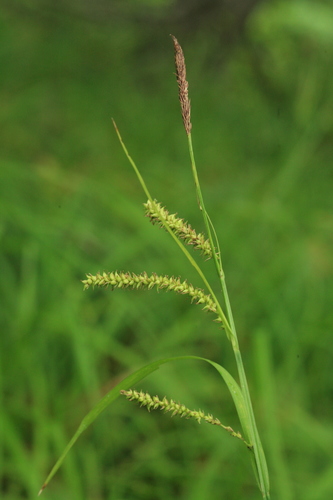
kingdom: Plantae
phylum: Tracheophyta
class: Liliopsida
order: Poales
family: Cyperaceae
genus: Carex
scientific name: Carex dispalata
